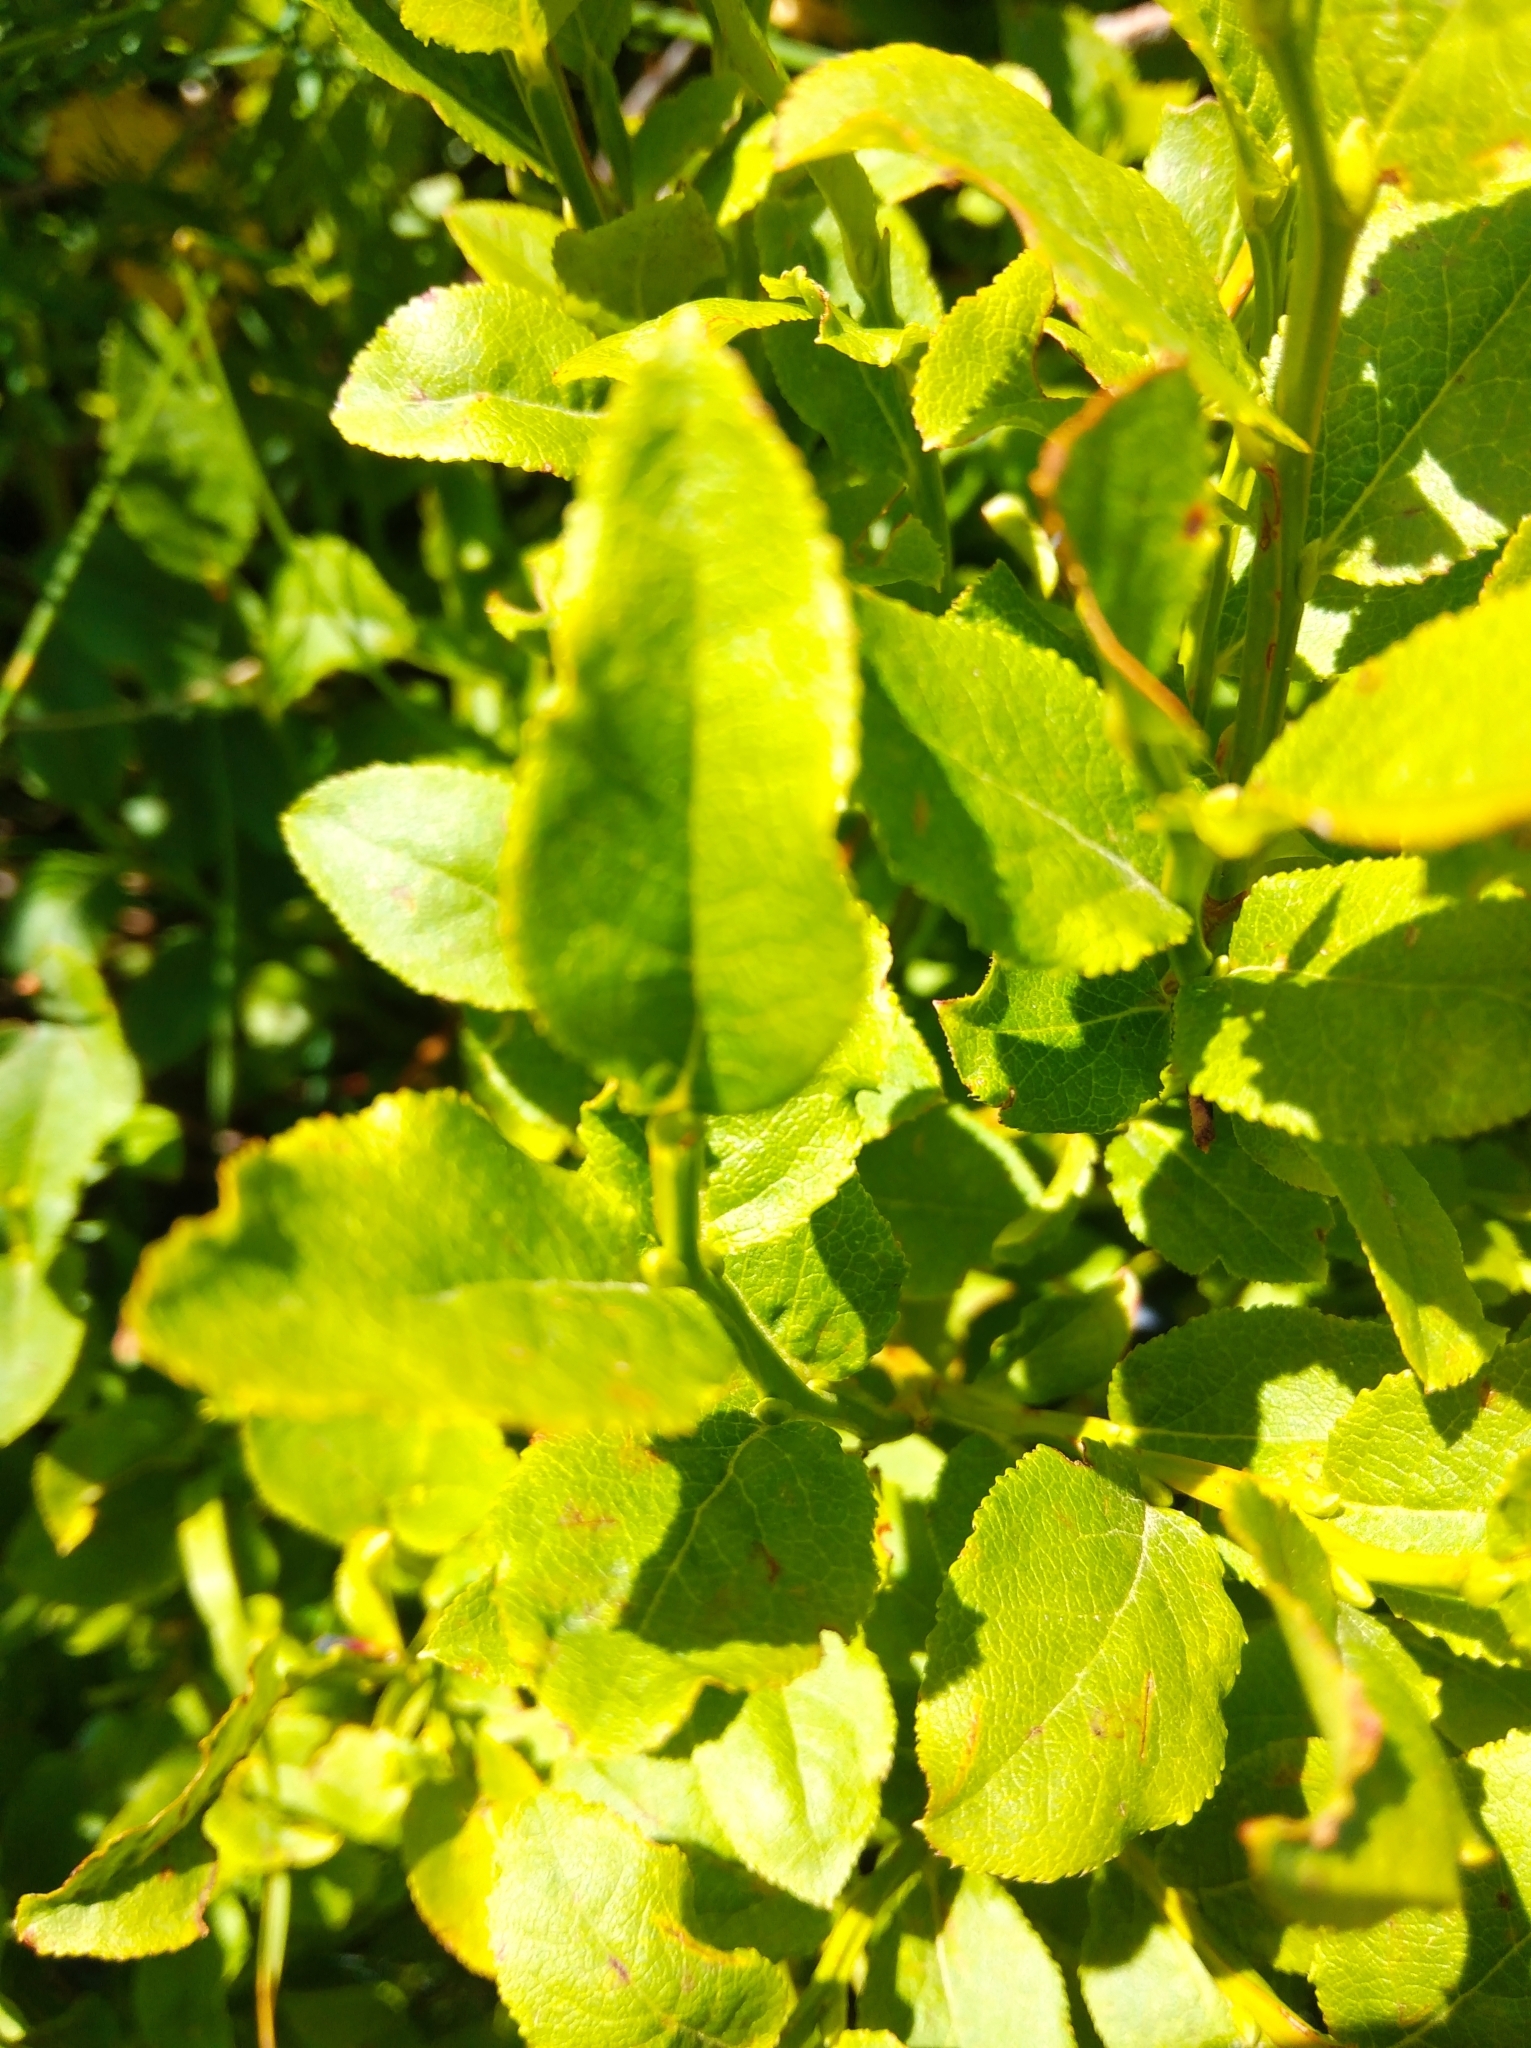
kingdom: Plantae
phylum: Tracheophyta
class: Magnoliopsida
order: Ericales
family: Ericaceae
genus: Vaccinium
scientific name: Vaccinium myrtillus
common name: Bilberry
